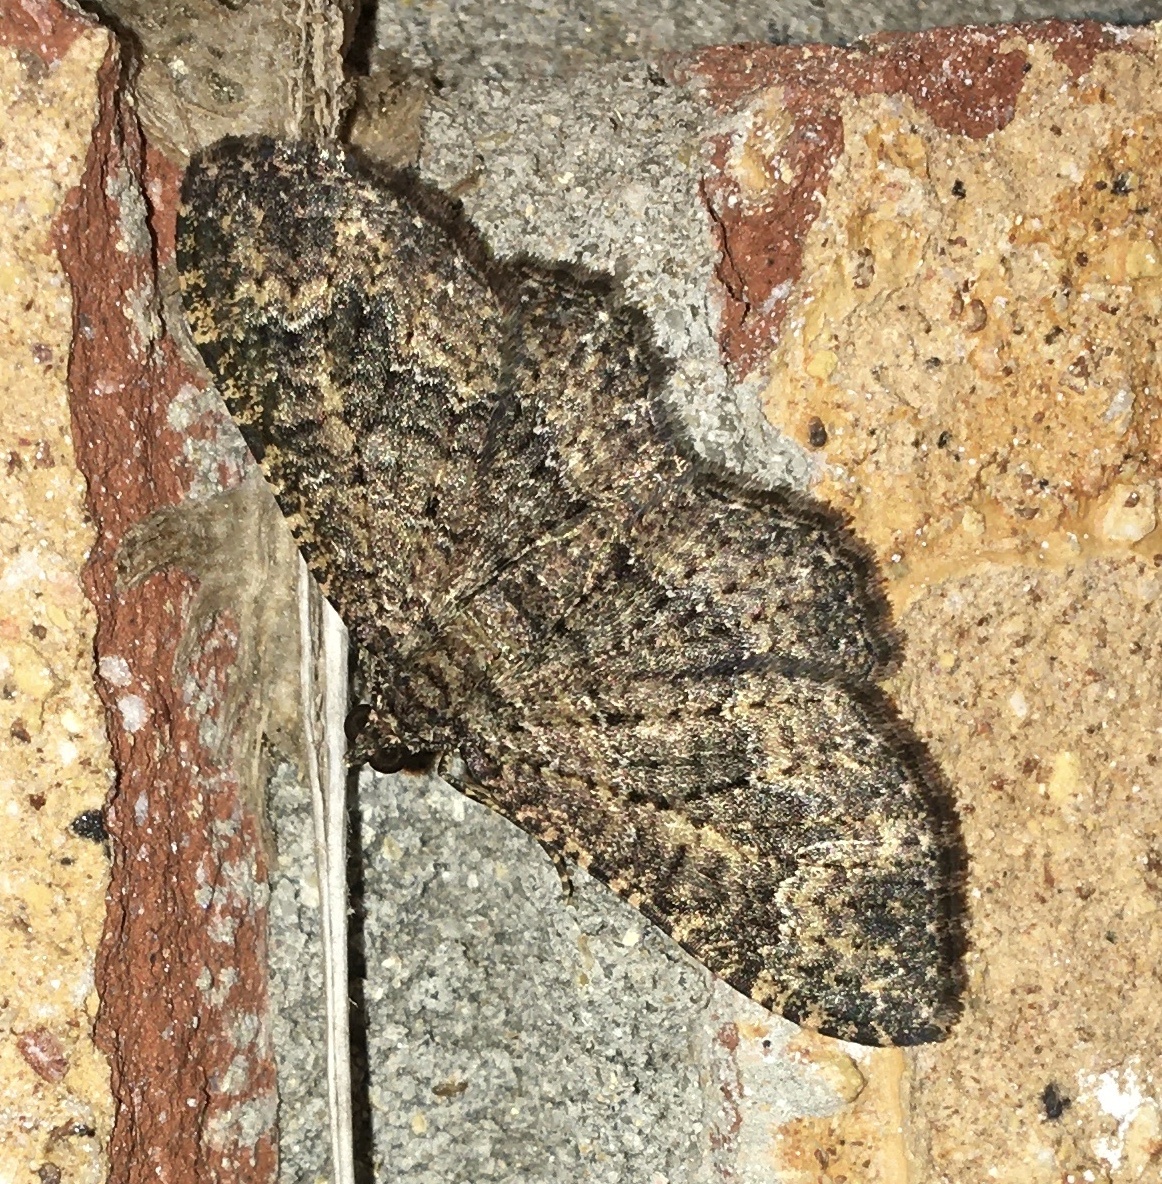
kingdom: Animalia
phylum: Arthropoda
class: Insecta
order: Lepidoptera
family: Geometridae
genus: Disclisioprocta
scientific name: Disclisioprocta stellata
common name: Somber carpet
